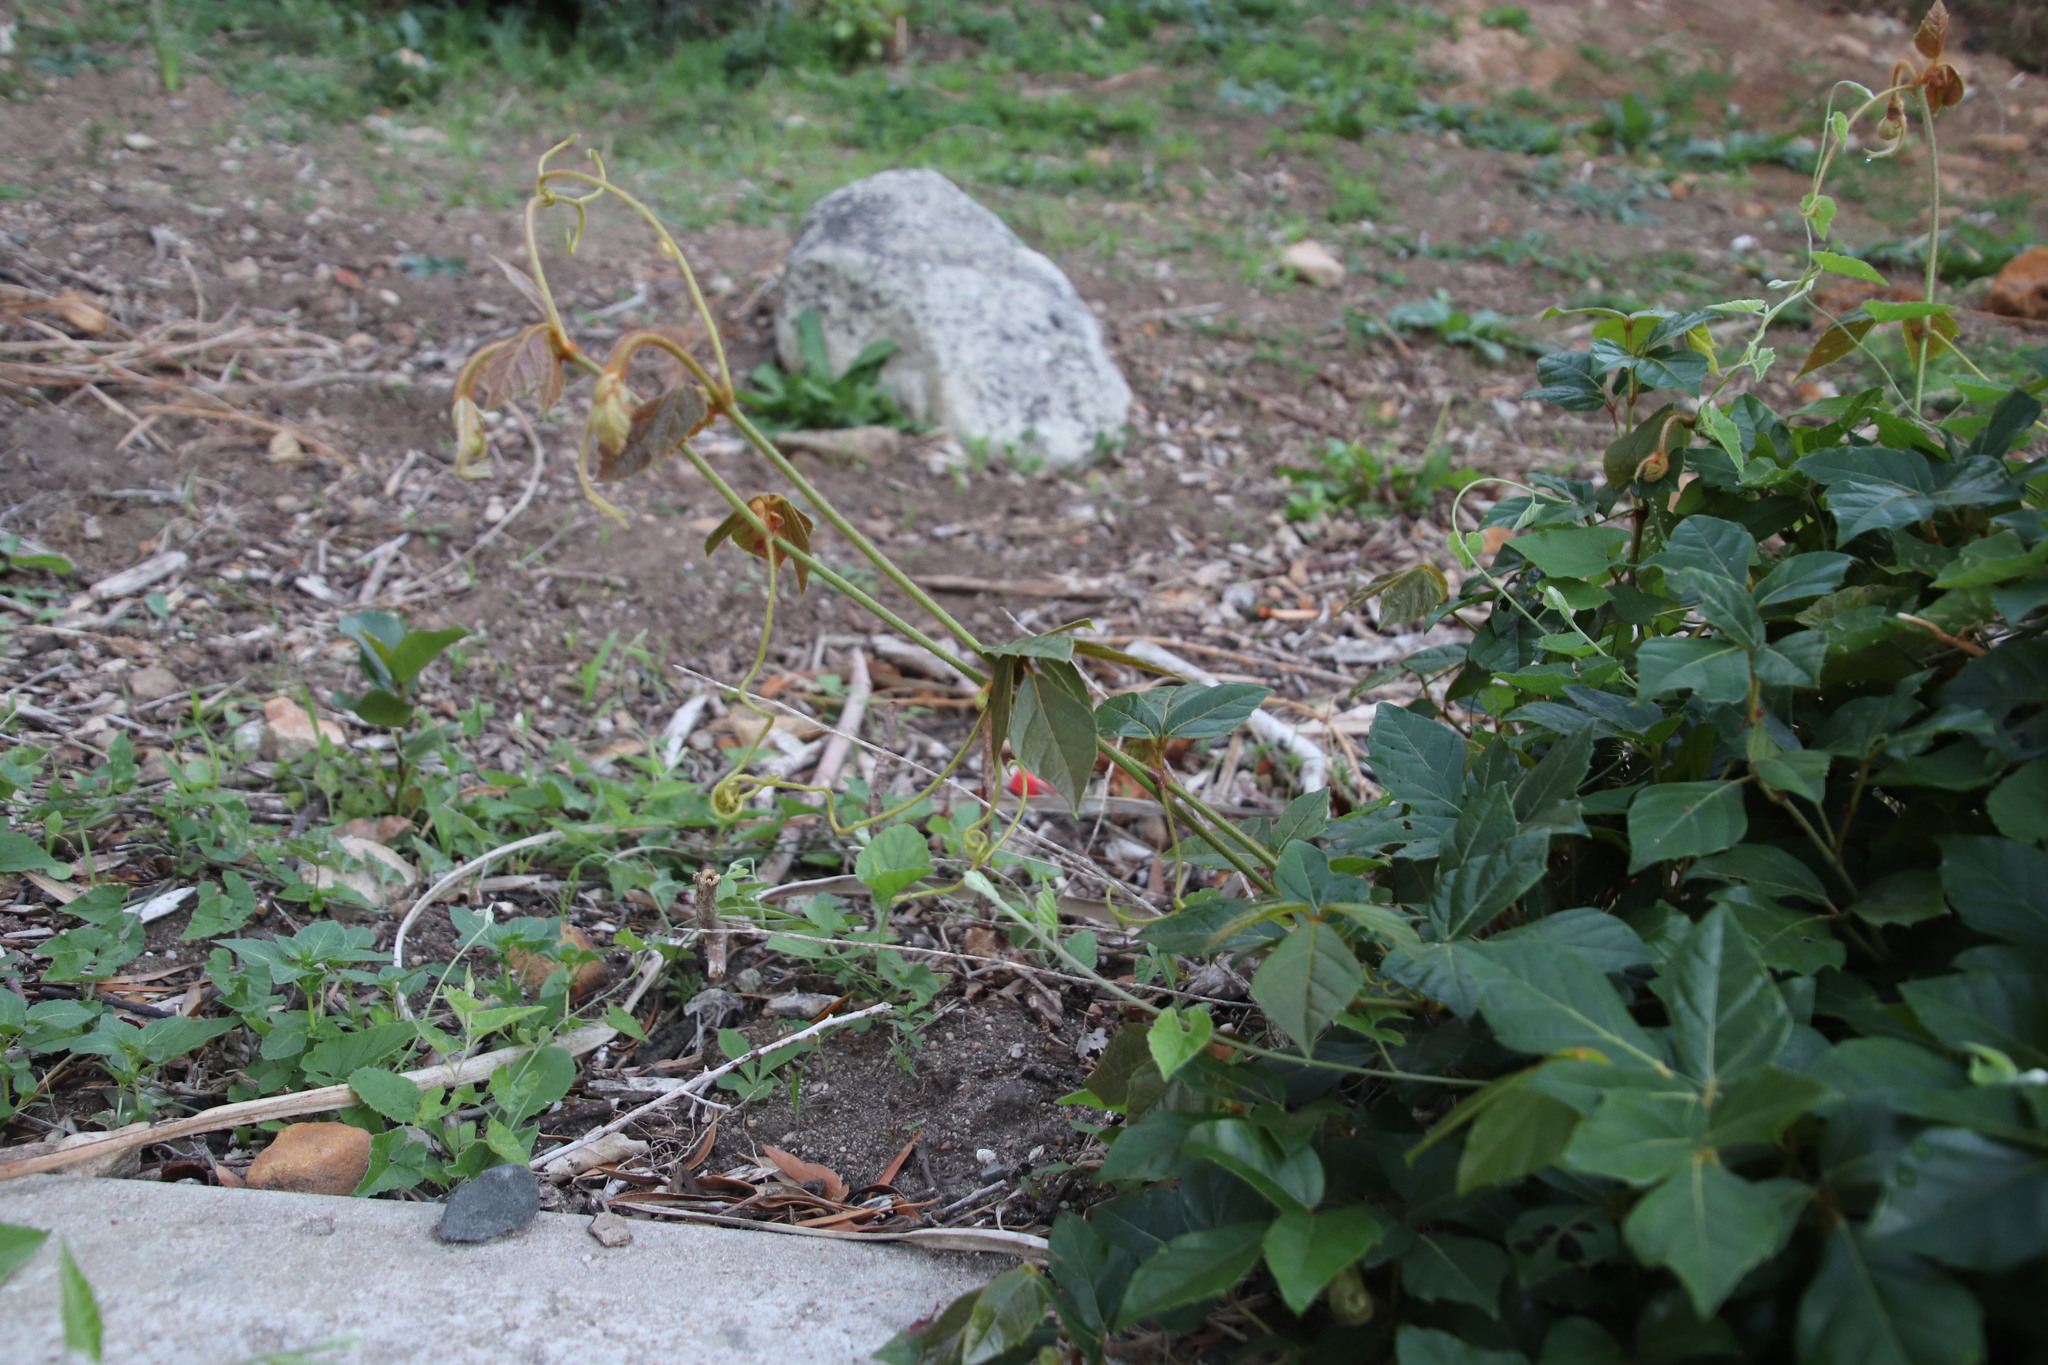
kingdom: Plantae
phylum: Tracheophyta
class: Magnoliopsida
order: Vitales
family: Vitaceae
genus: Rhoicissus
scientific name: Rhoicissus rhomboidea
